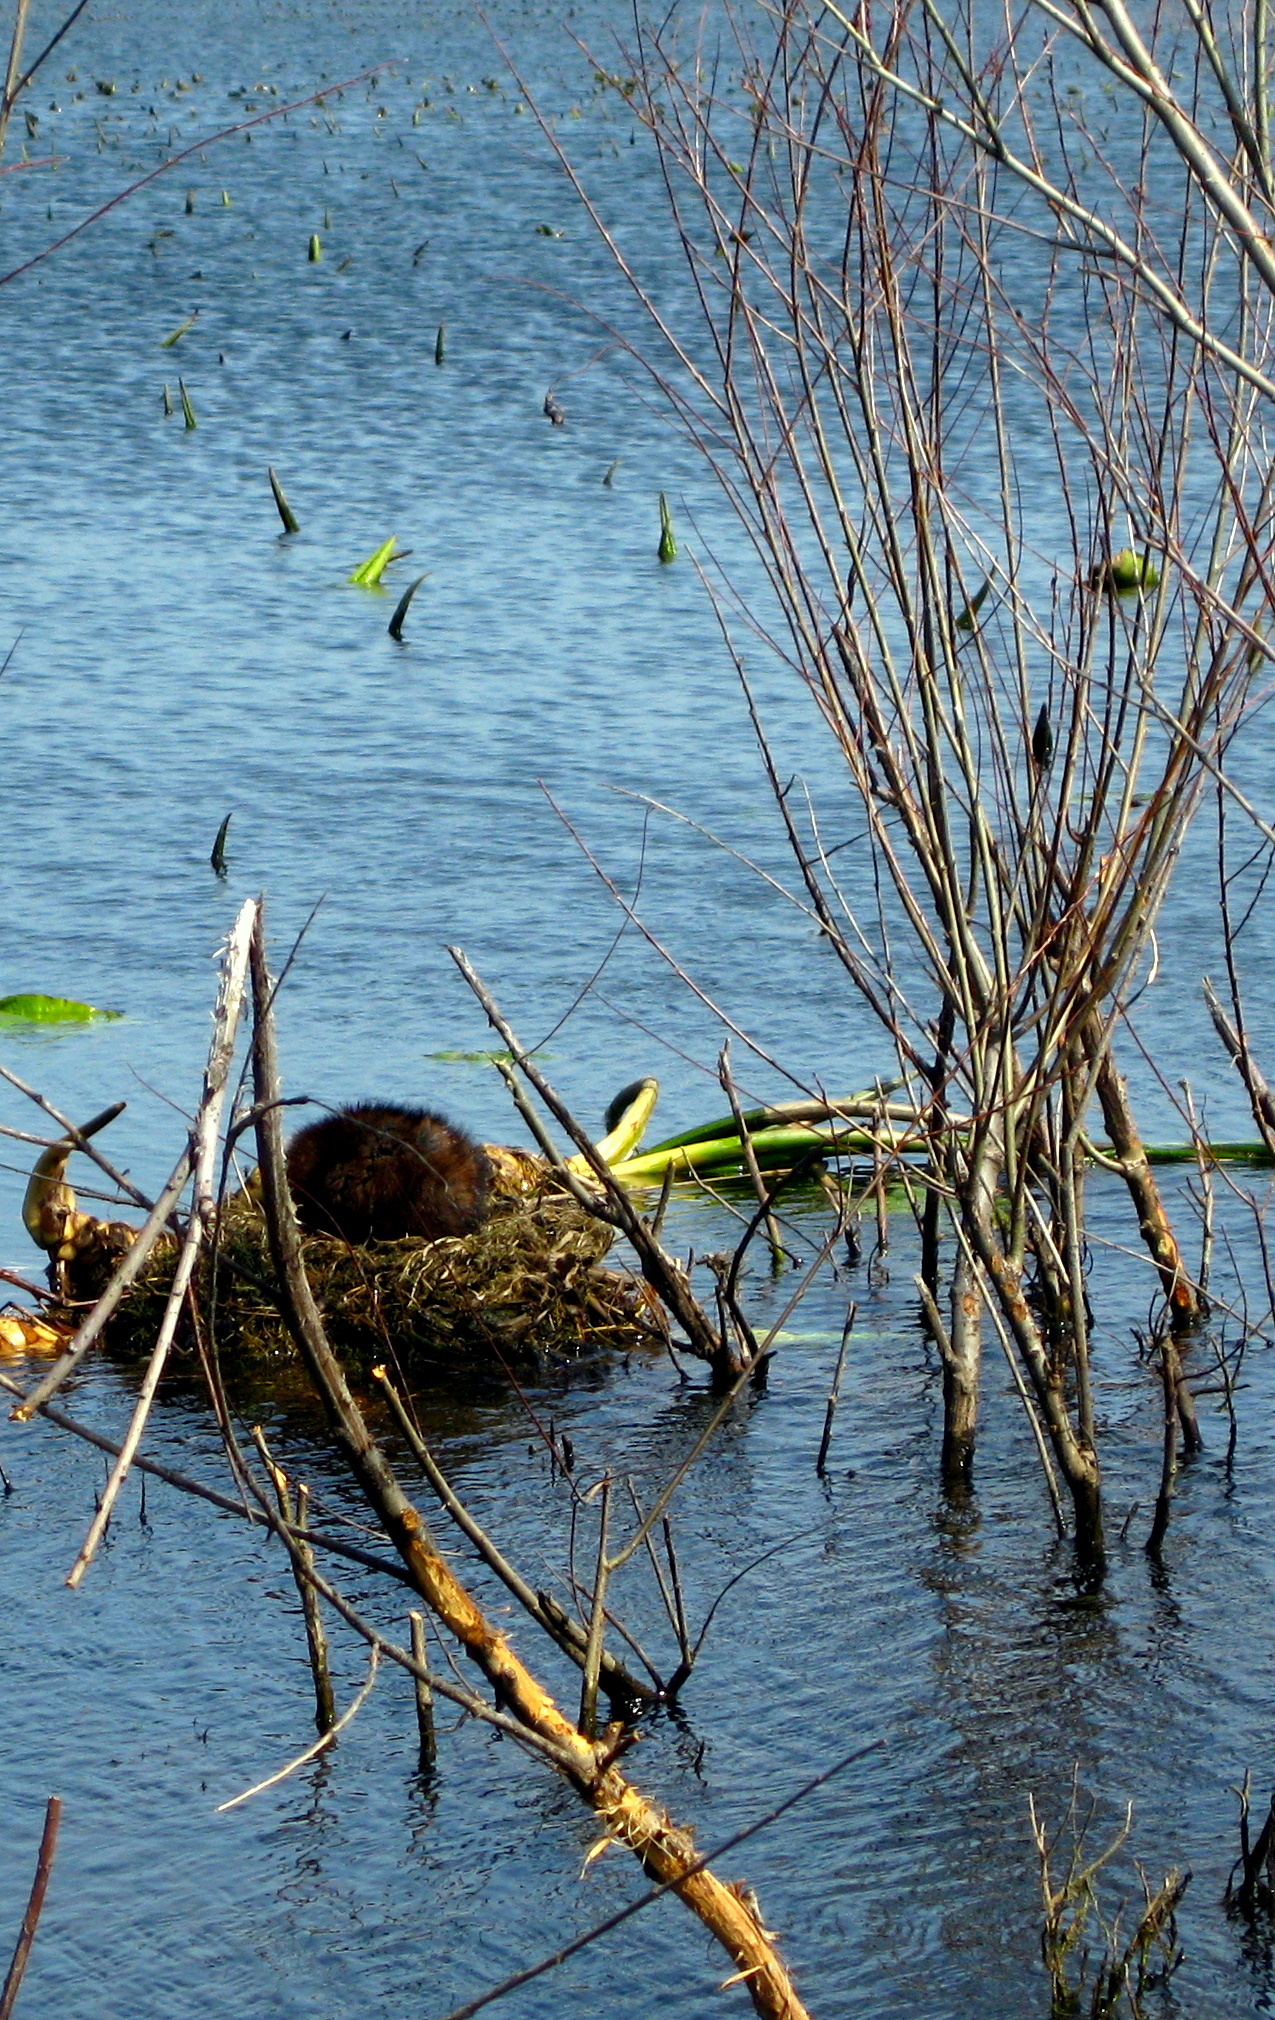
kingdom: Animalia
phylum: Chordata
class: Mammalia
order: Rodentia
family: Cricetidae
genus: Ondatra
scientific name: Ondatra zibethicus
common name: Muskrat
